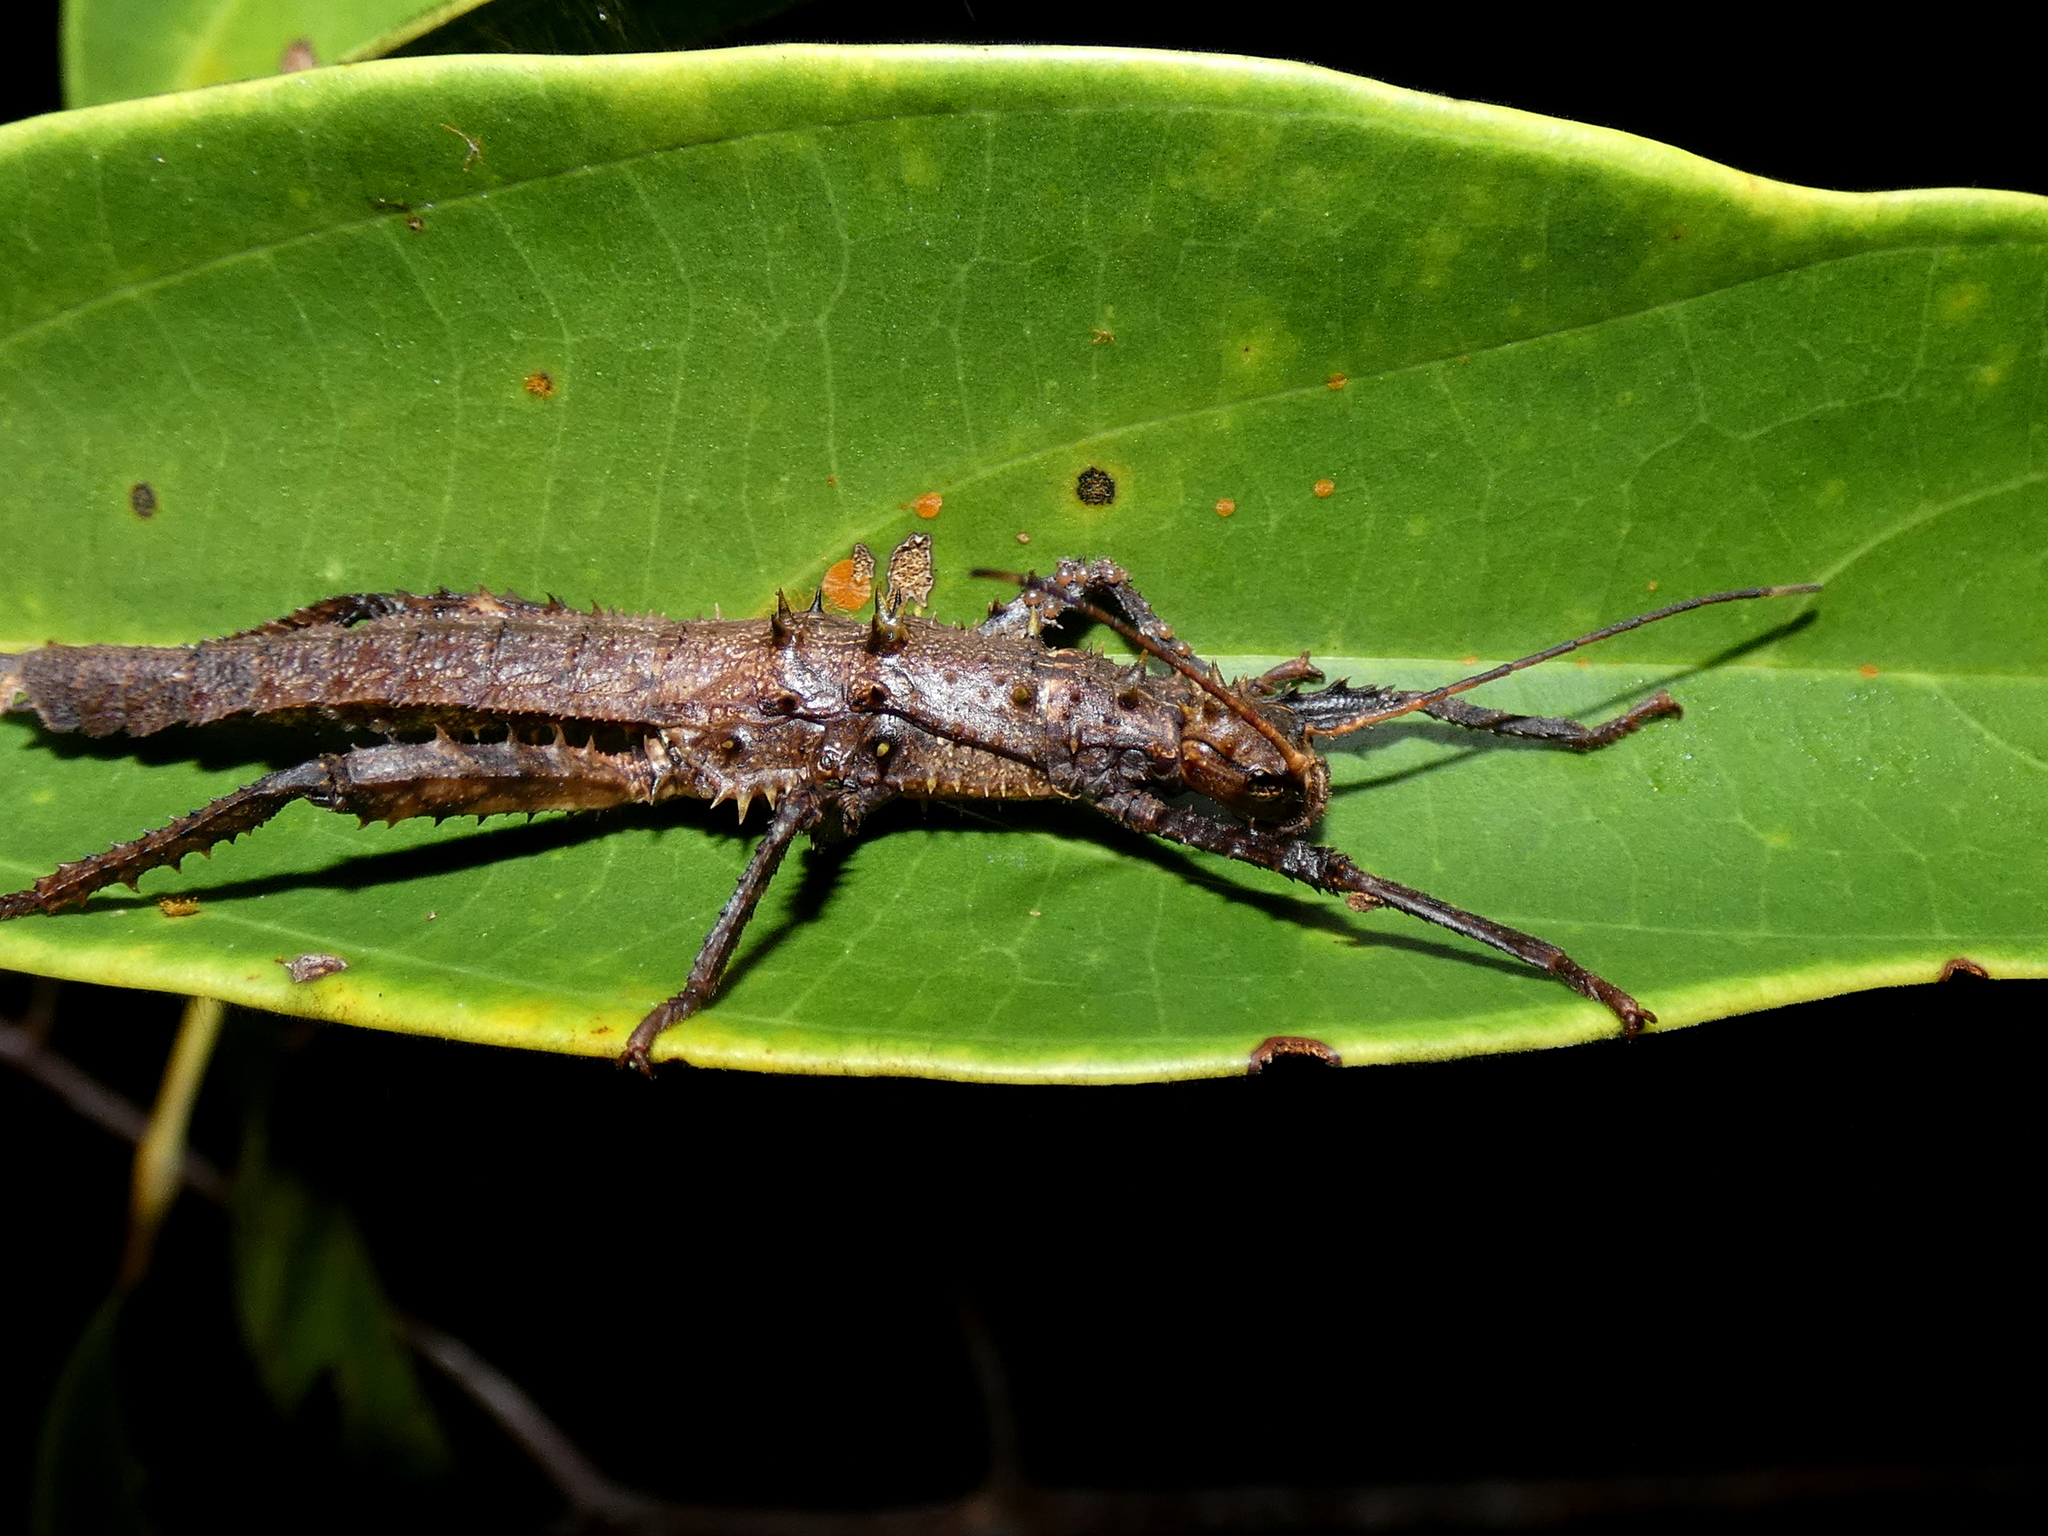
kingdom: Animalia
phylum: Arthropoda
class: Insecta
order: Phasmida
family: Heteropterygidae
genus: Haaniella
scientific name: Haaniella echinata
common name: Prickly haaniella
